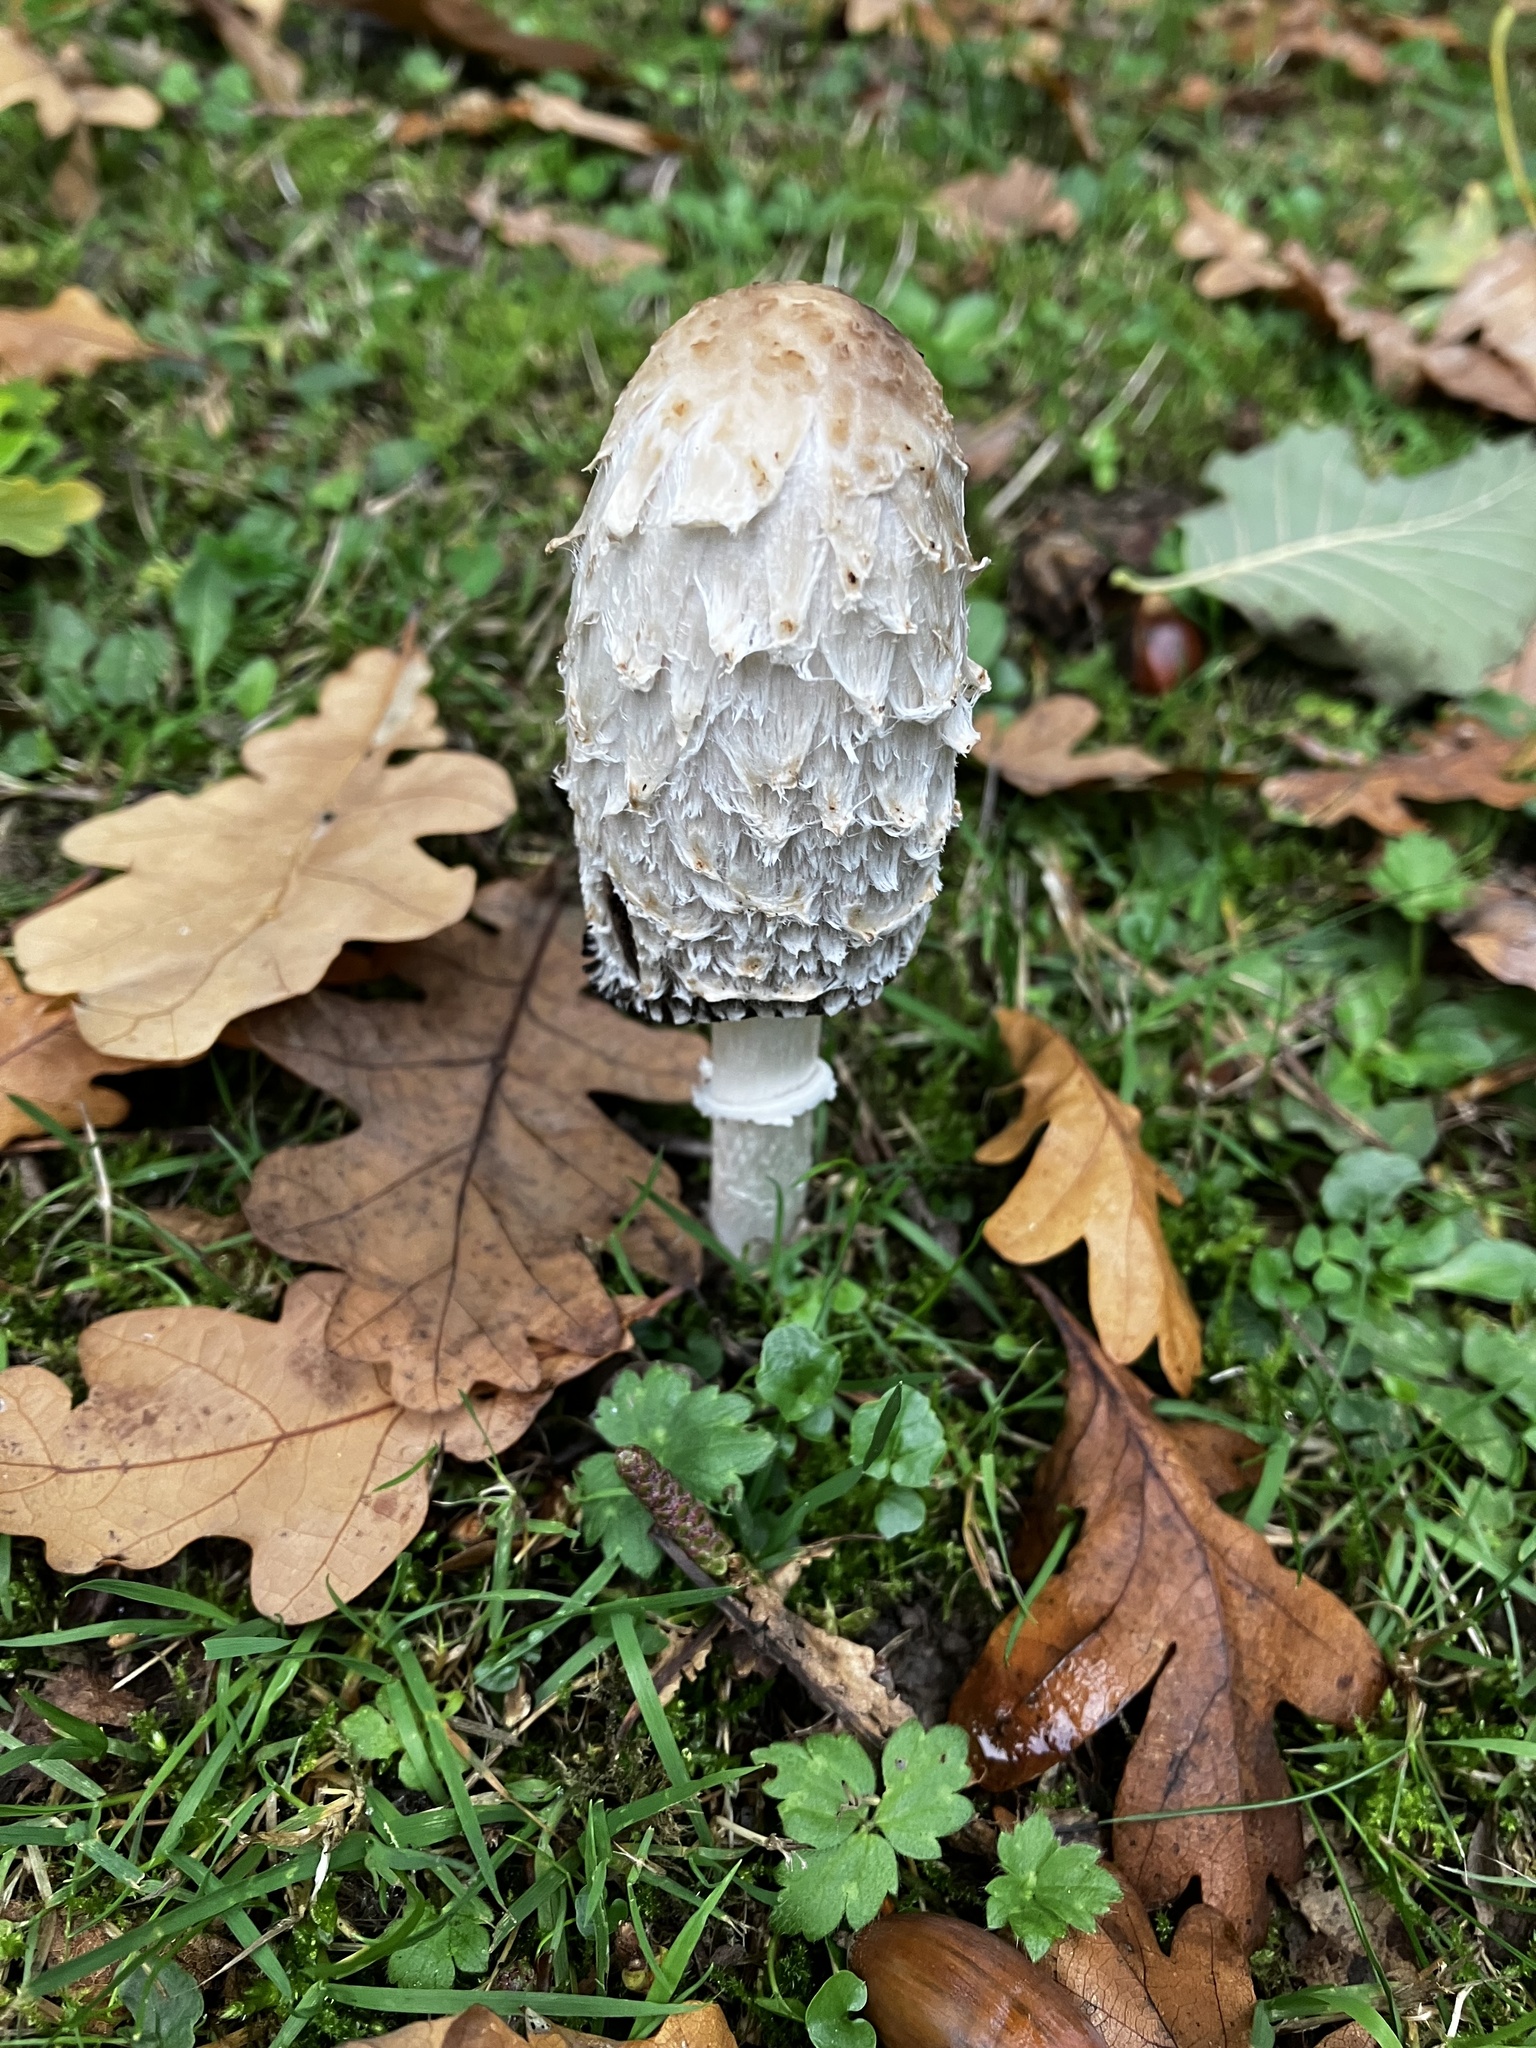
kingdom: Fungi
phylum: Basidiomycota
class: Agaricomycetes
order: Agaricales
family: Agaricaceae
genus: Coprinus
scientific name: Coprinus comatus
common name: Lawyer's wig
